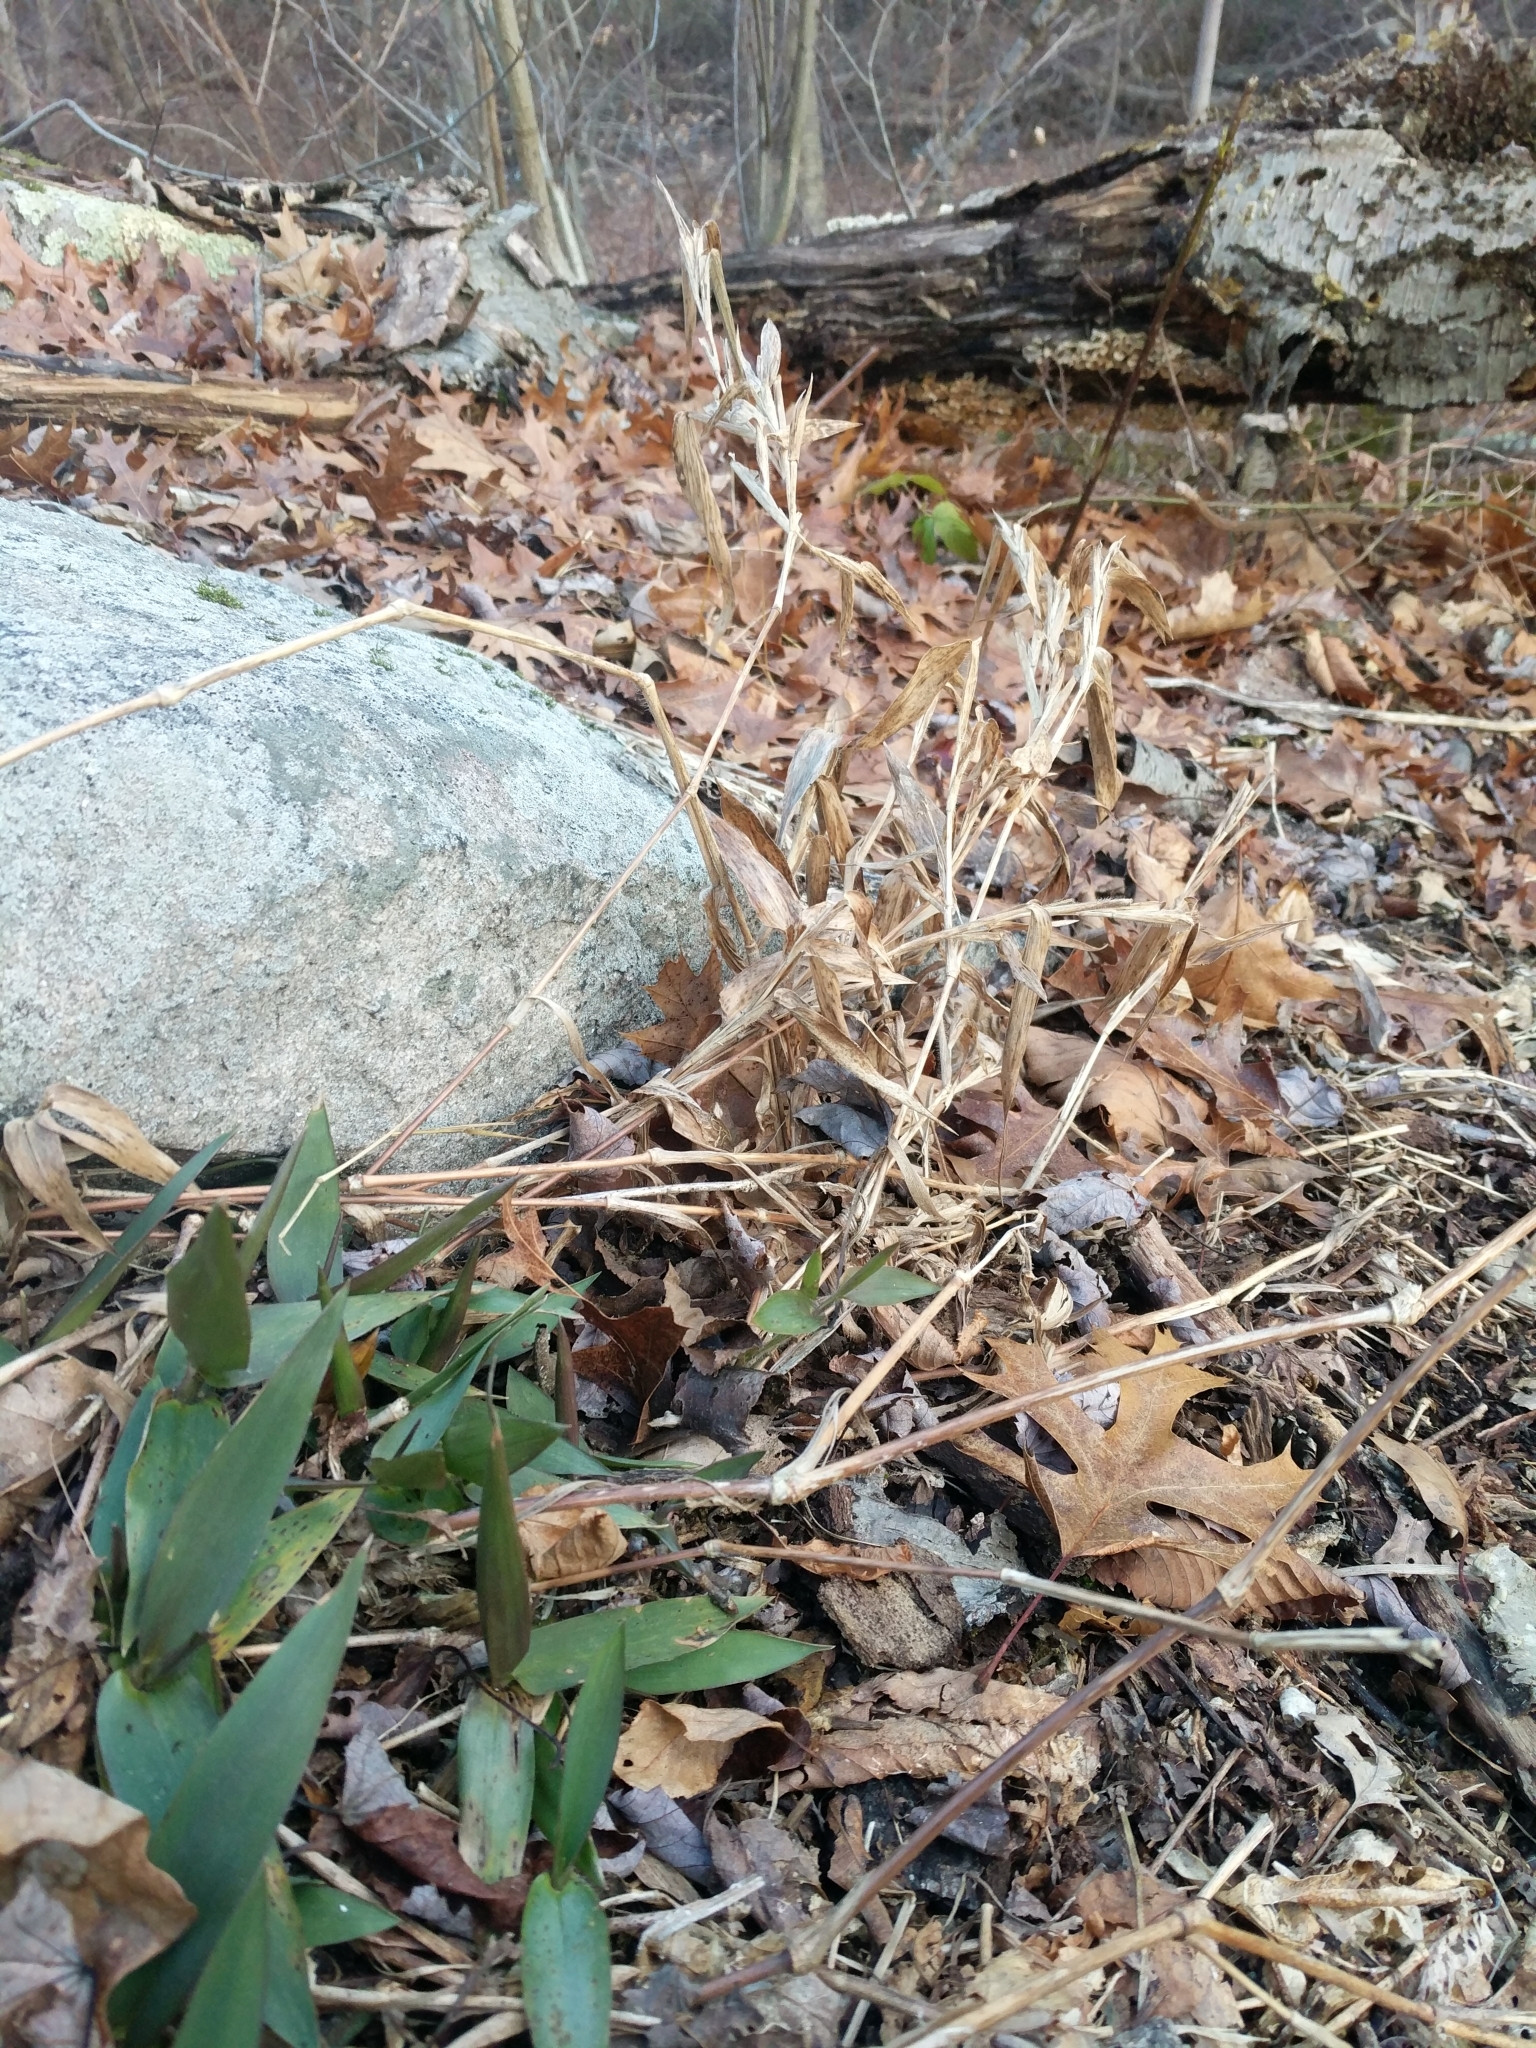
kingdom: Plantae
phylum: Tracheophyta
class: Liliopsida
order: Poales
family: Poaceae
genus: Dichanthelium
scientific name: Dichanthelium clandestinum
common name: Deer-tongue grass
